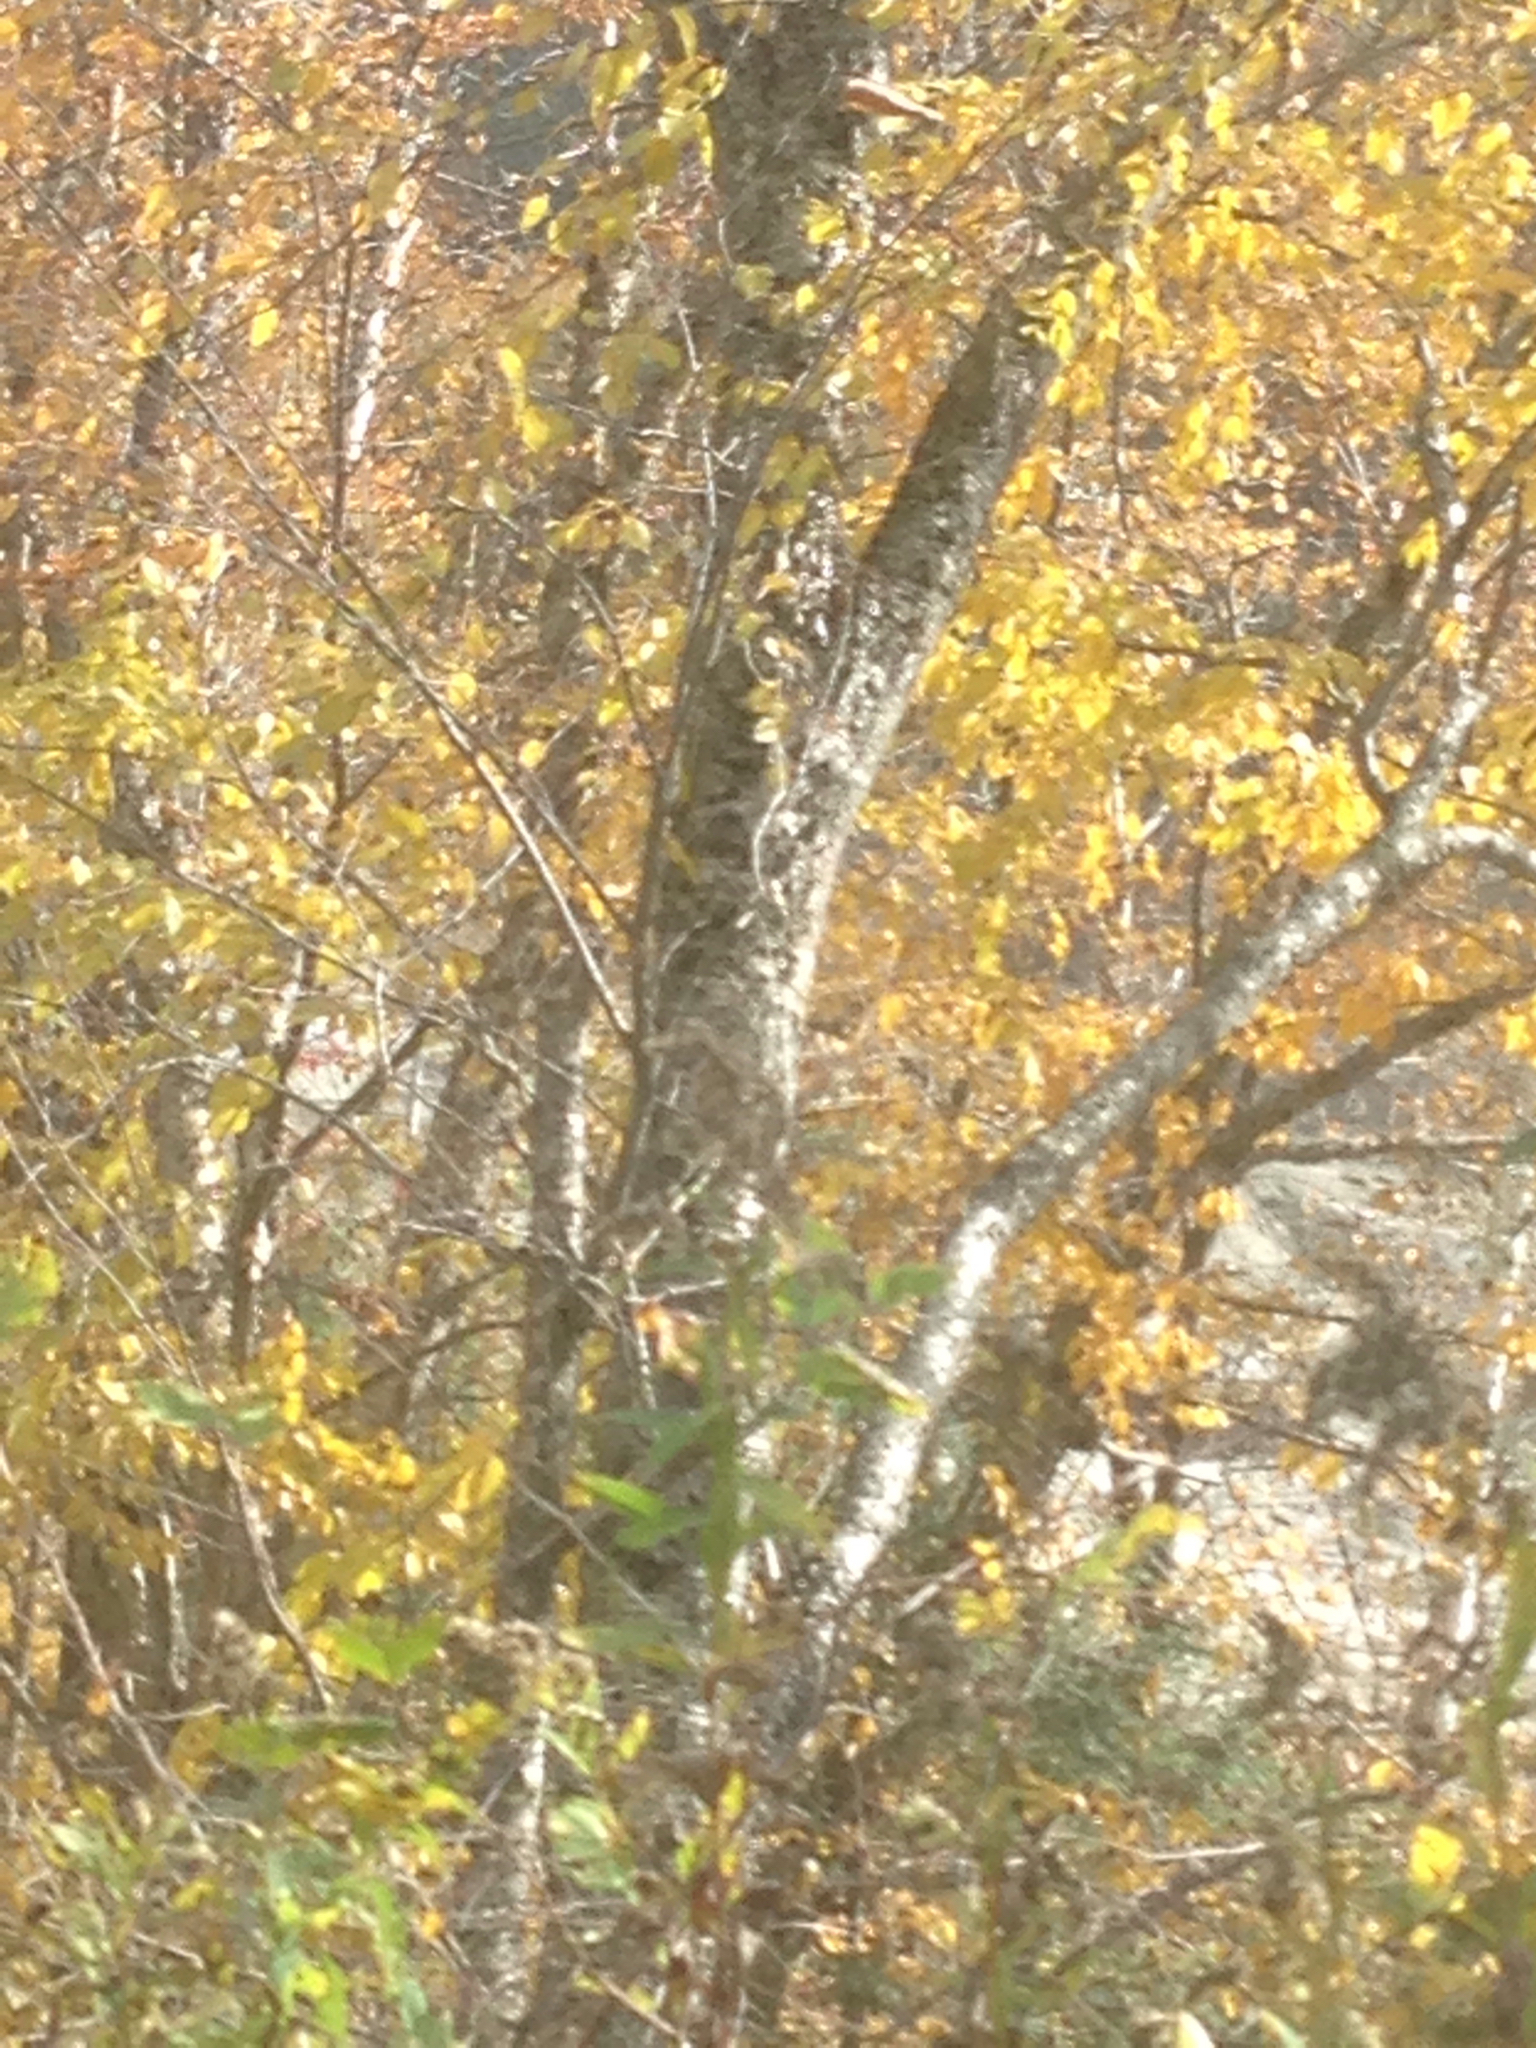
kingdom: Plantae
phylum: Tracheophyta
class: Magnoliopsida
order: Fagales
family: Betulaceae
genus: Betula
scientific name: Betula alleghaniensis
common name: Yellow birch
